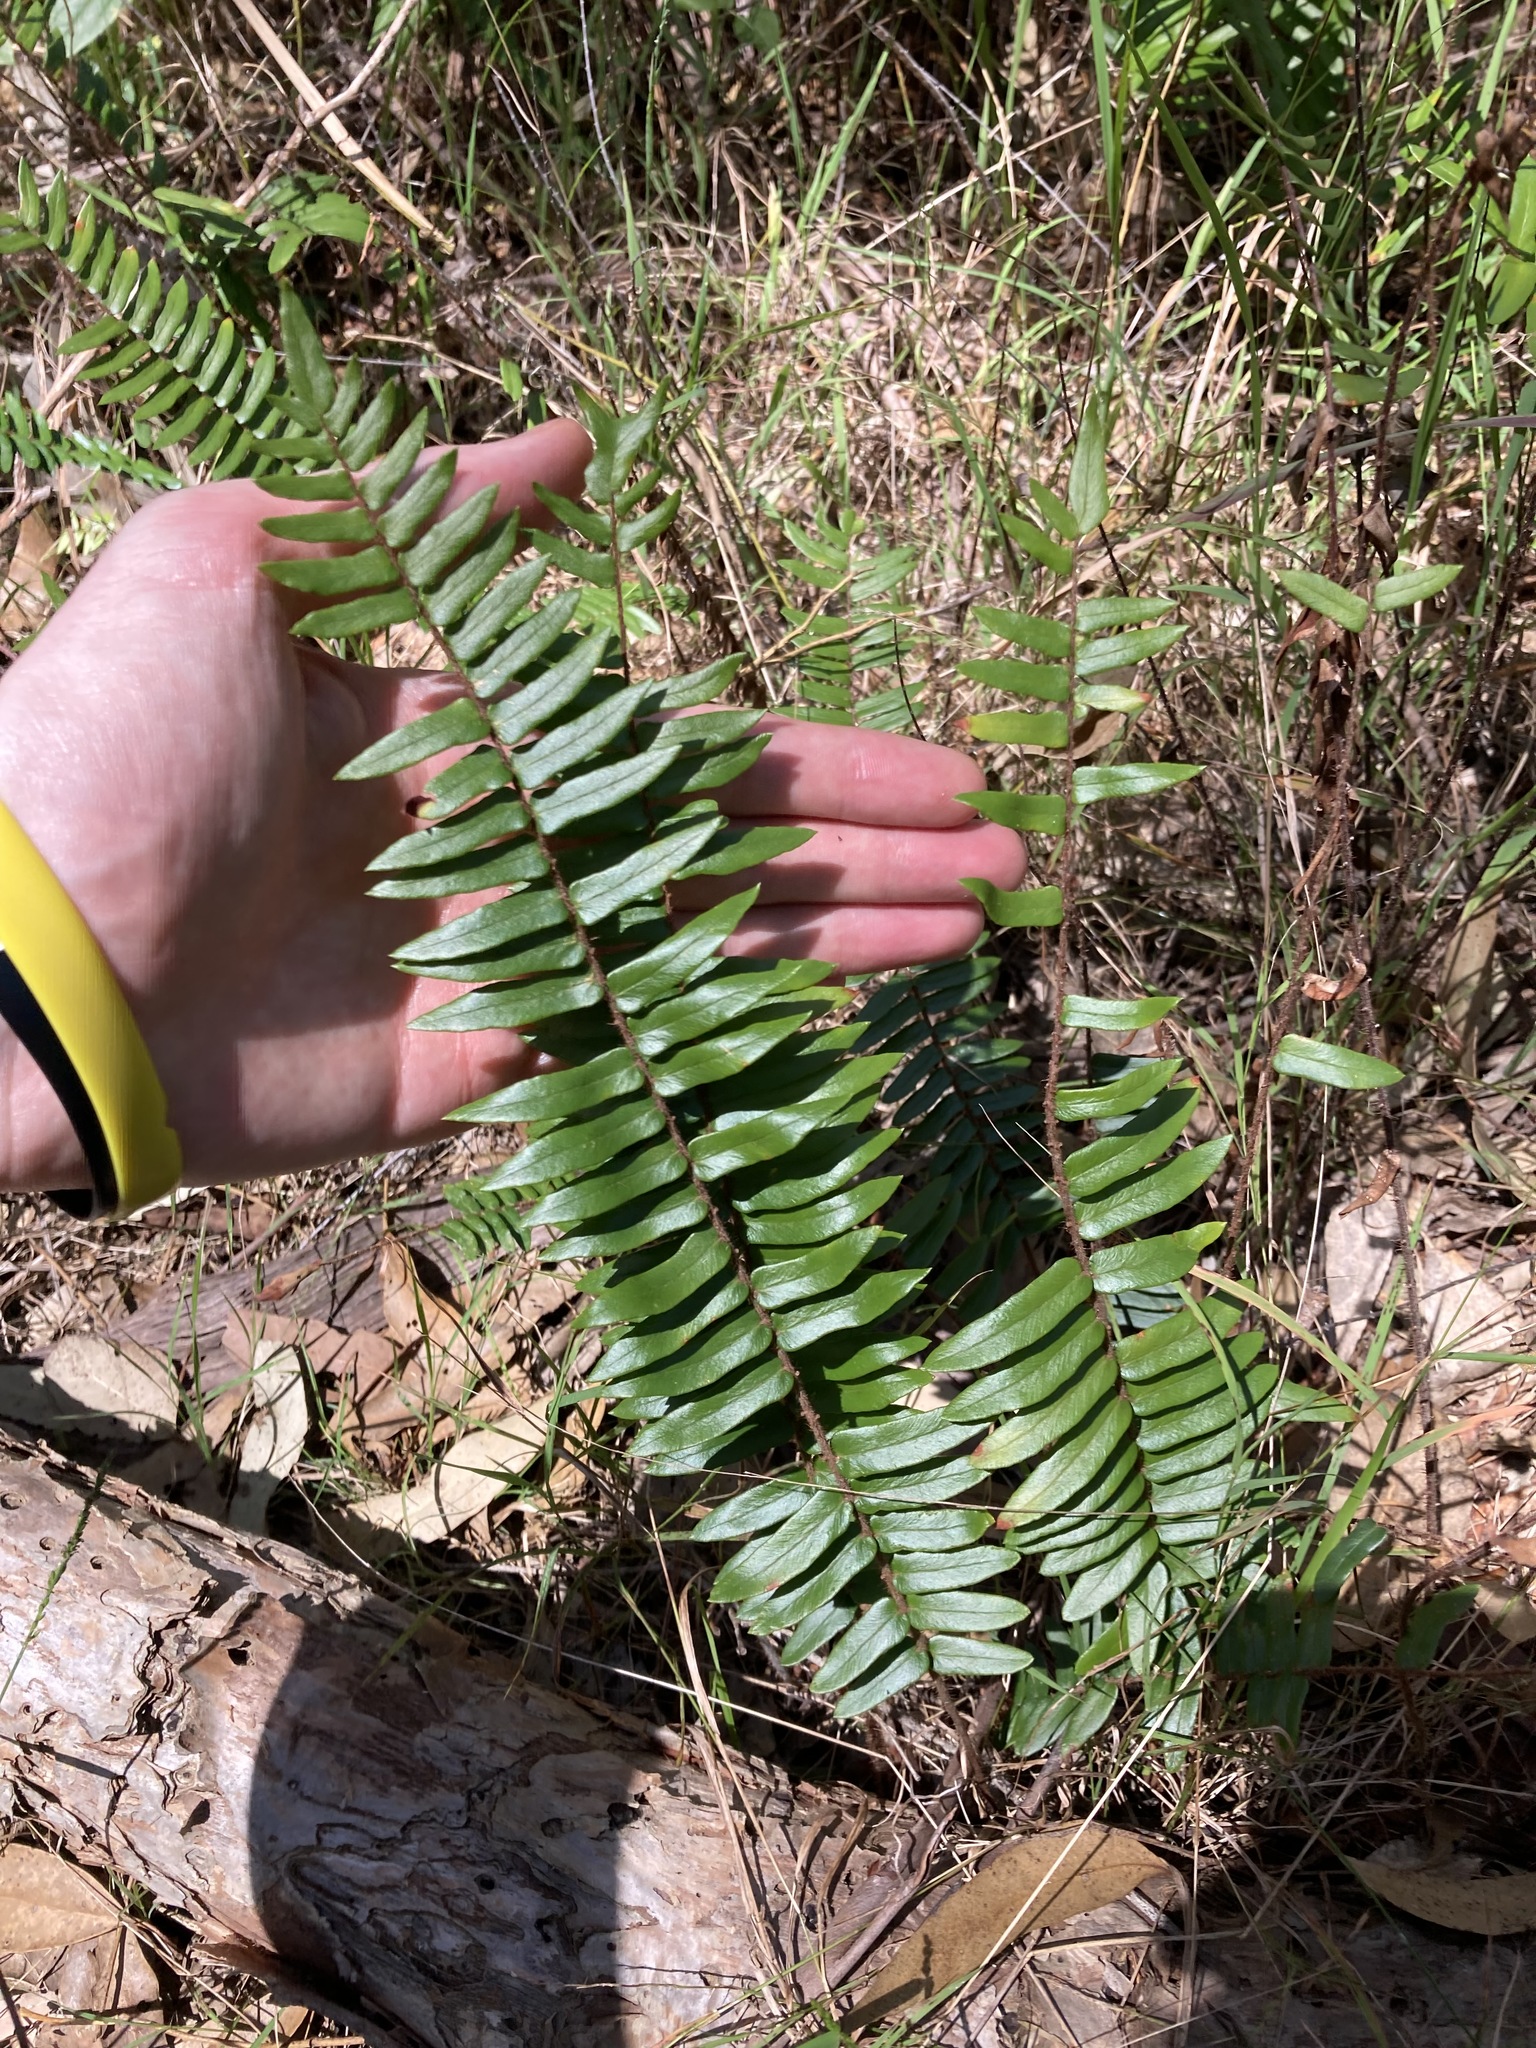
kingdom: Plantae
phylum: Tracheophyta
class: Polypodiopsida
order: Polypodiales
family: Pteridaceae
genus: Pellaea
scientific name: Pellaea falcata
